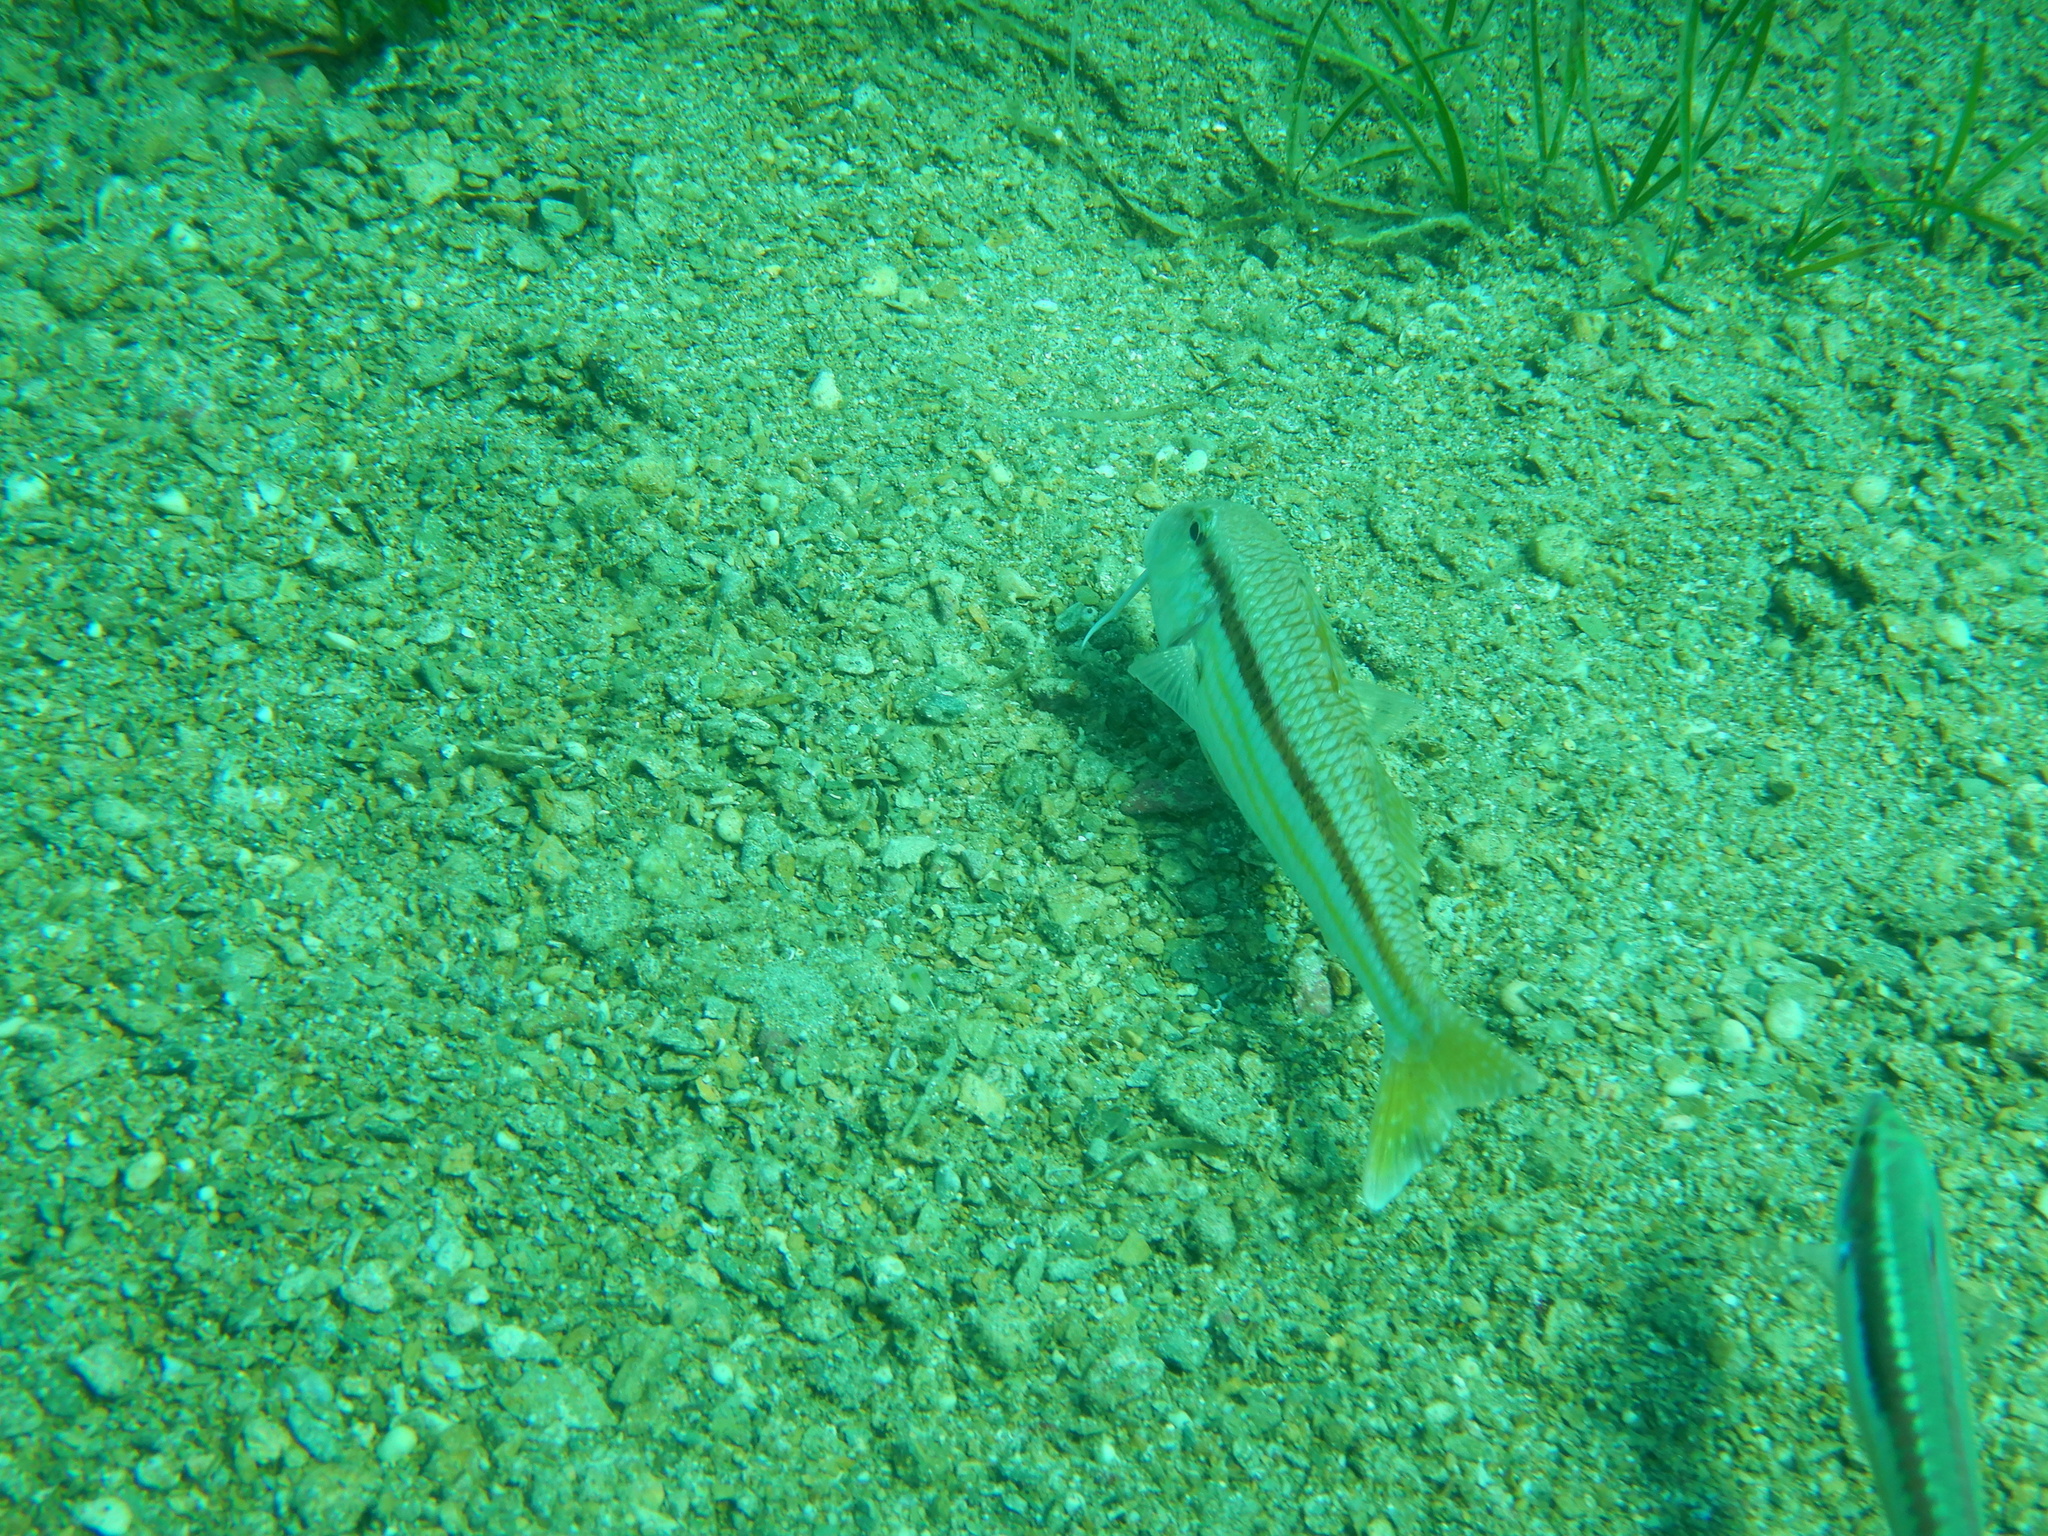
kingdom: Animalia
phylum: Chordata
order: Perciformes
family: Mullidae
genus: Mullus
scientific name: Mullus surmuletus
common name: Red mullet
